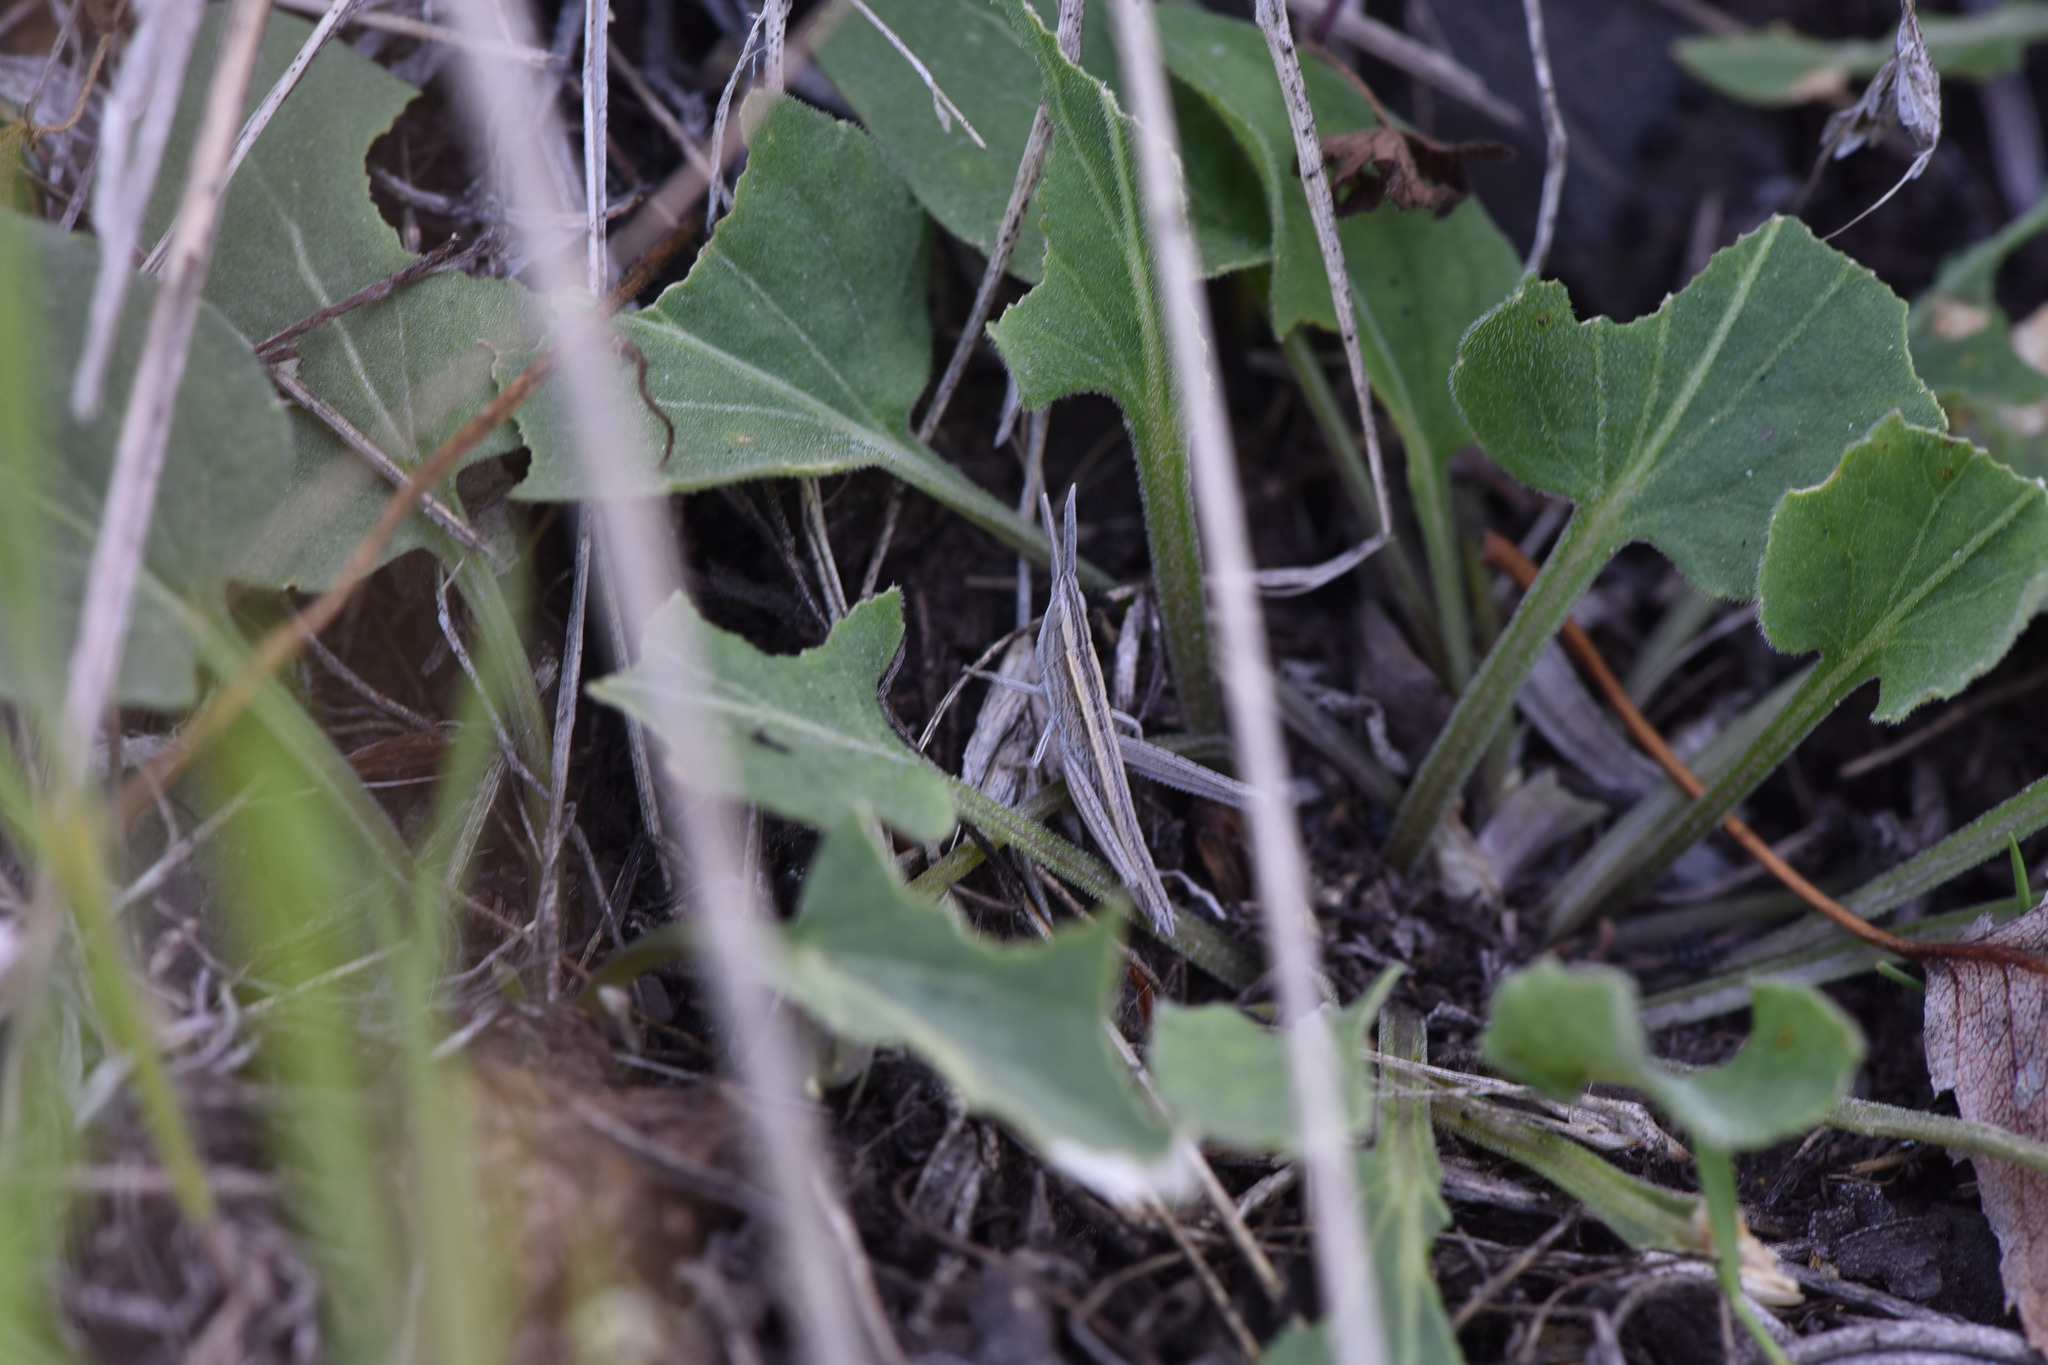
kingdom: Animalia
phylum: Arthropoda
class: Insecta
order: Orthoptera
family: Acrididae
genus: Pseudopomala
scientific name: Pseudopomala brachyptera
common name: Bunchgrass grasshopper
